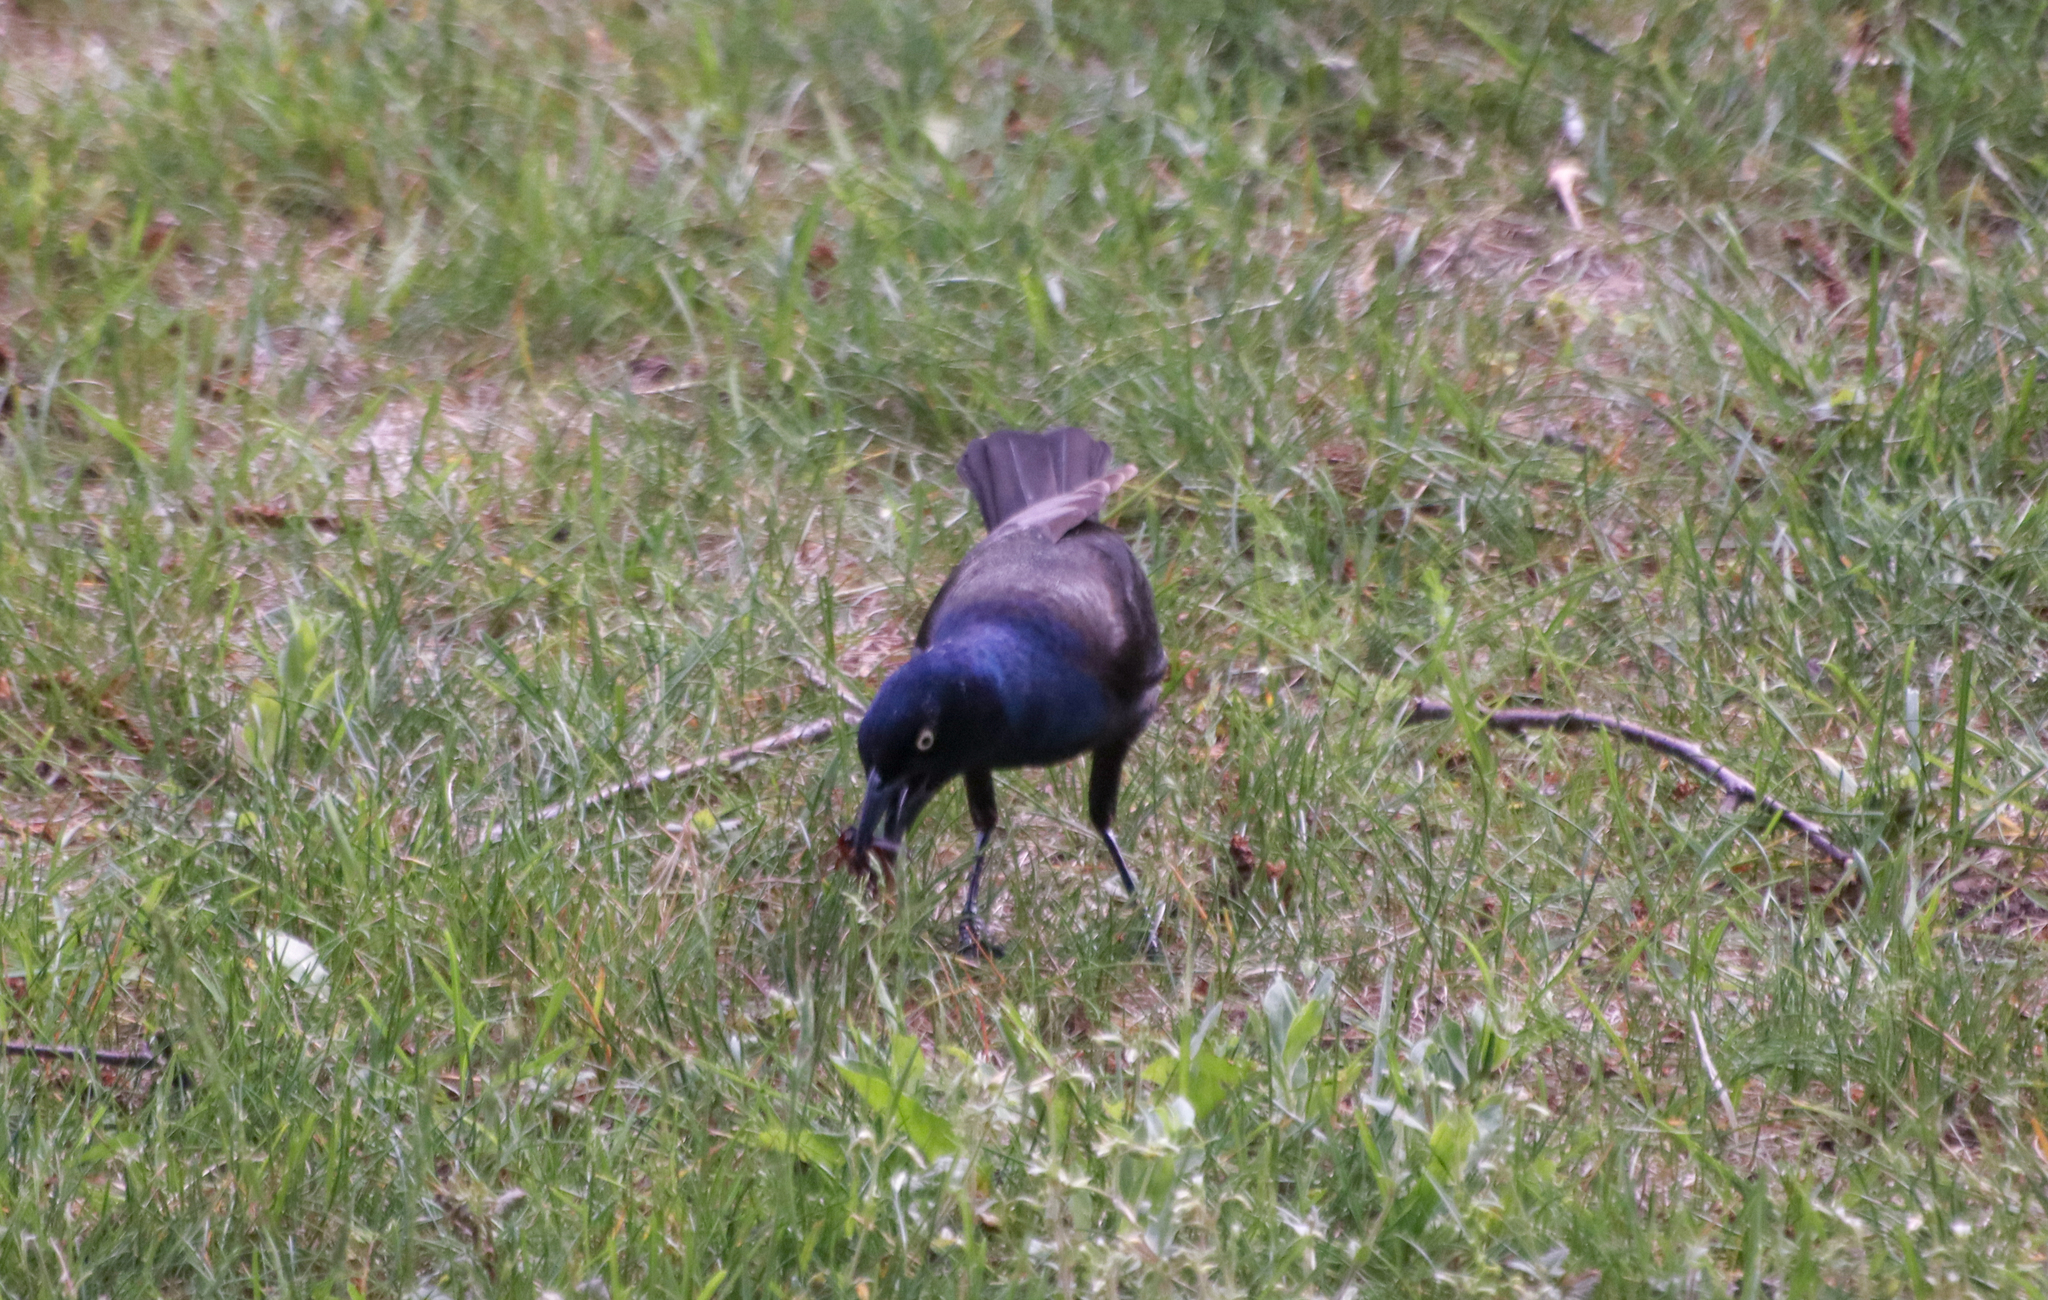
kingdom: Animalia
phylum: Chordata
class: Aves
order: Passeriformes
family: Icteridae
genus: Quiscalus
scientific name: Quiscalus quiscula
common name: Common grackle
